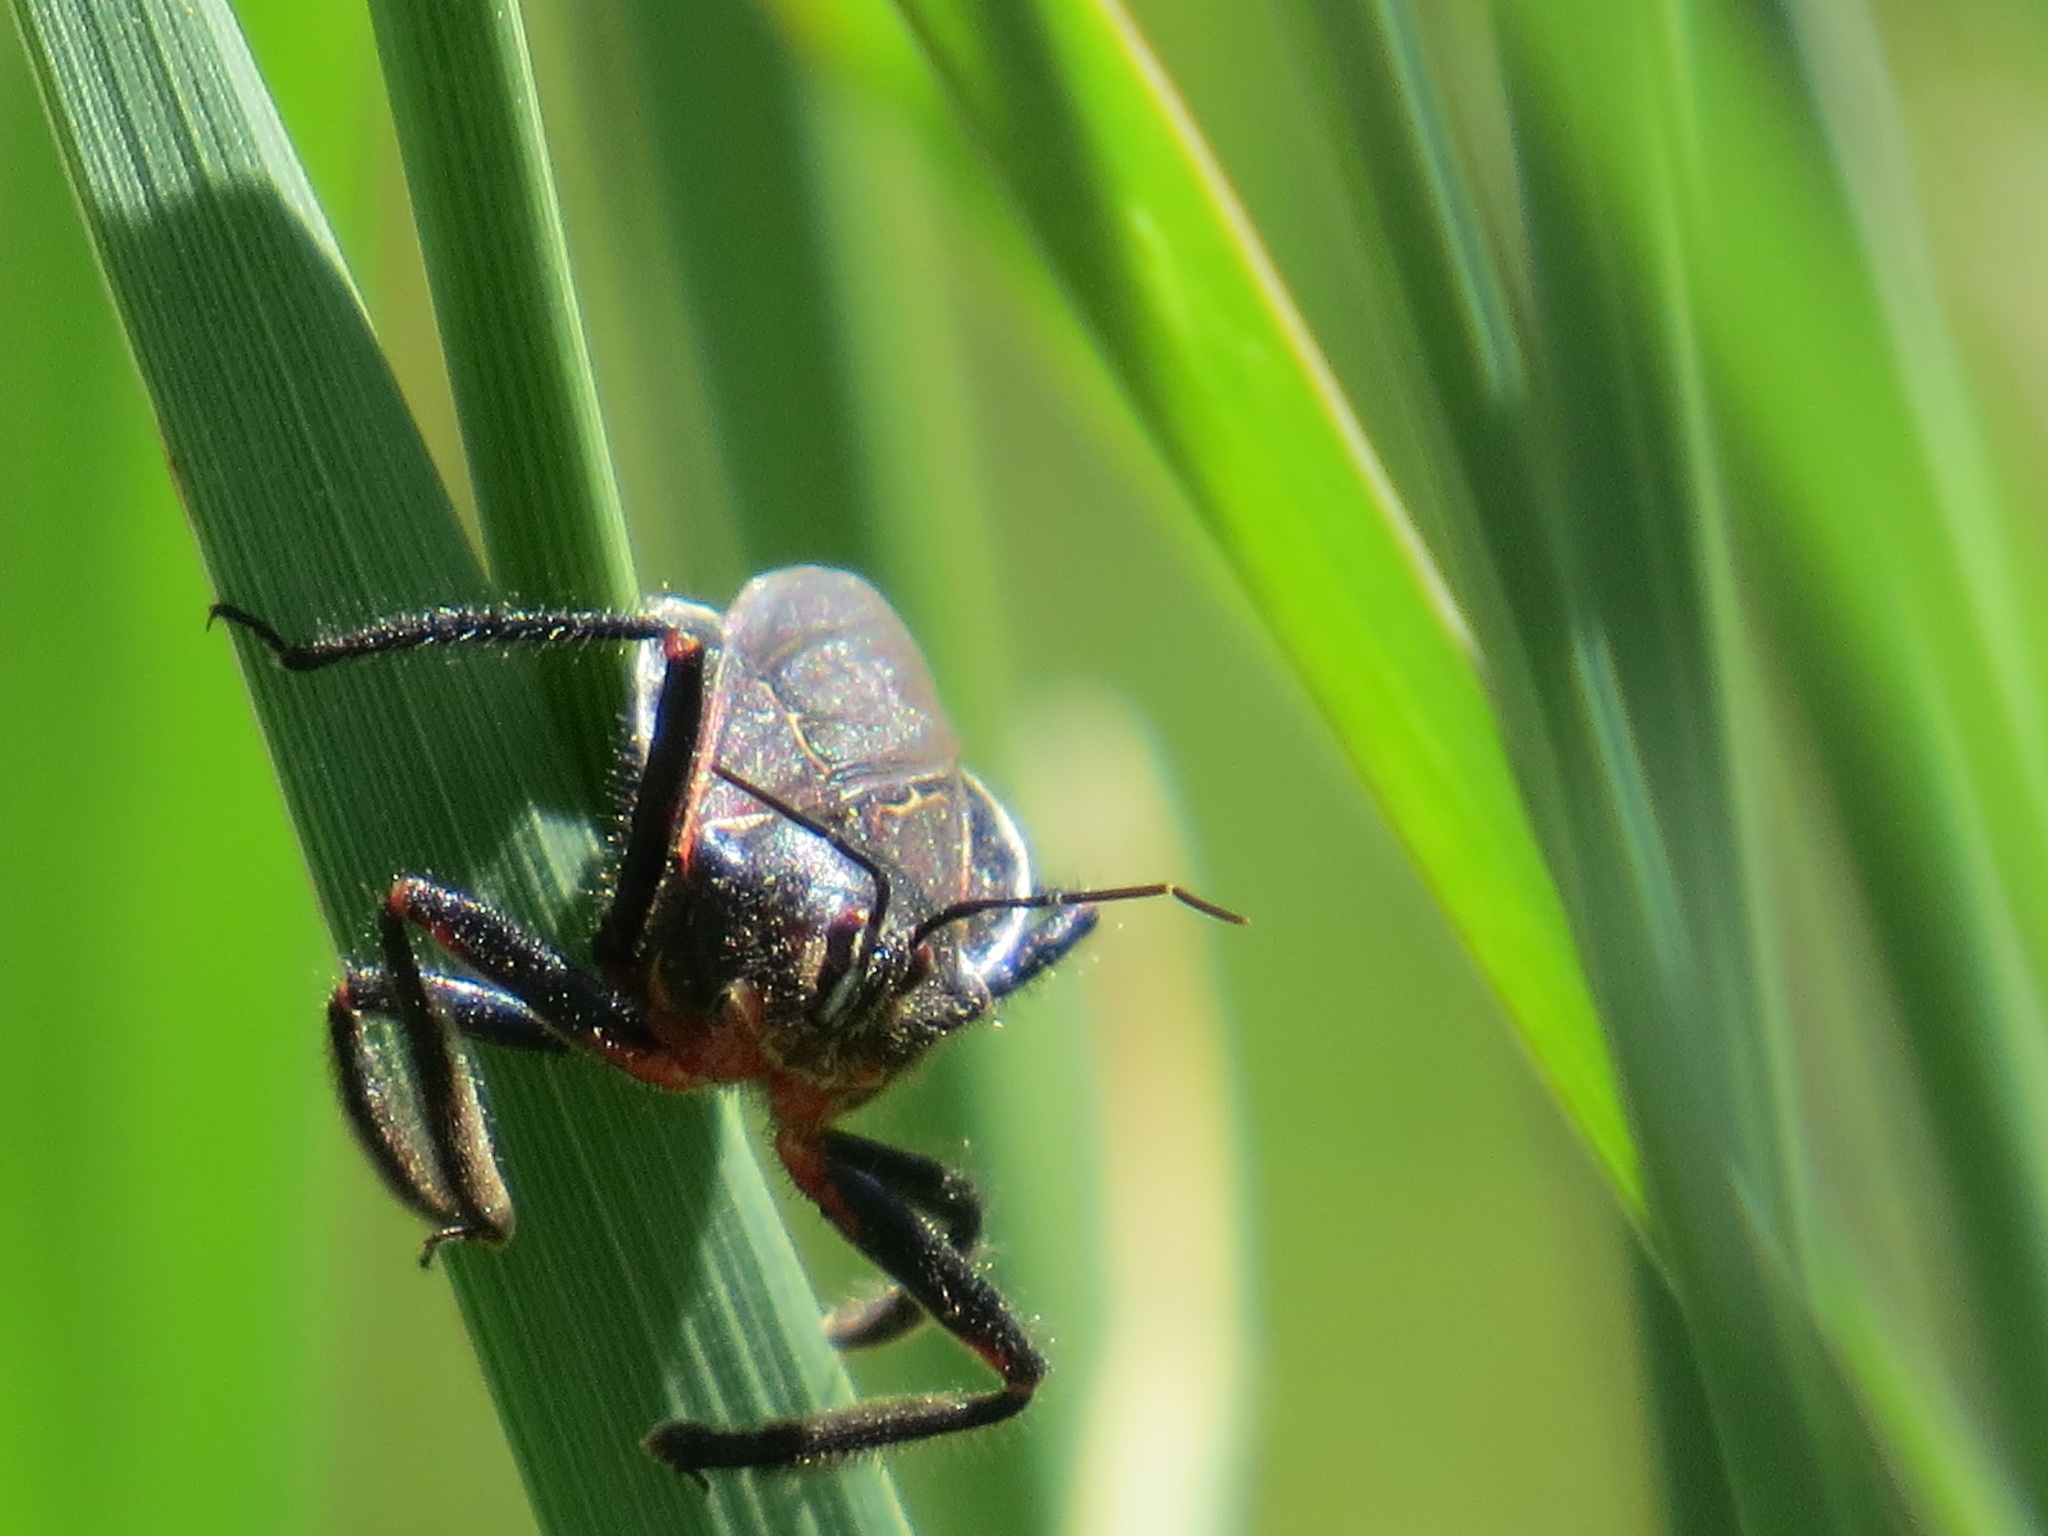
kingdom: Animalia
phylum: Arthropoda
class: Insecta
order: Hemiptera
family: Reduviidae
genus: Apiomerus
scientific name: Apiomerus californicus
